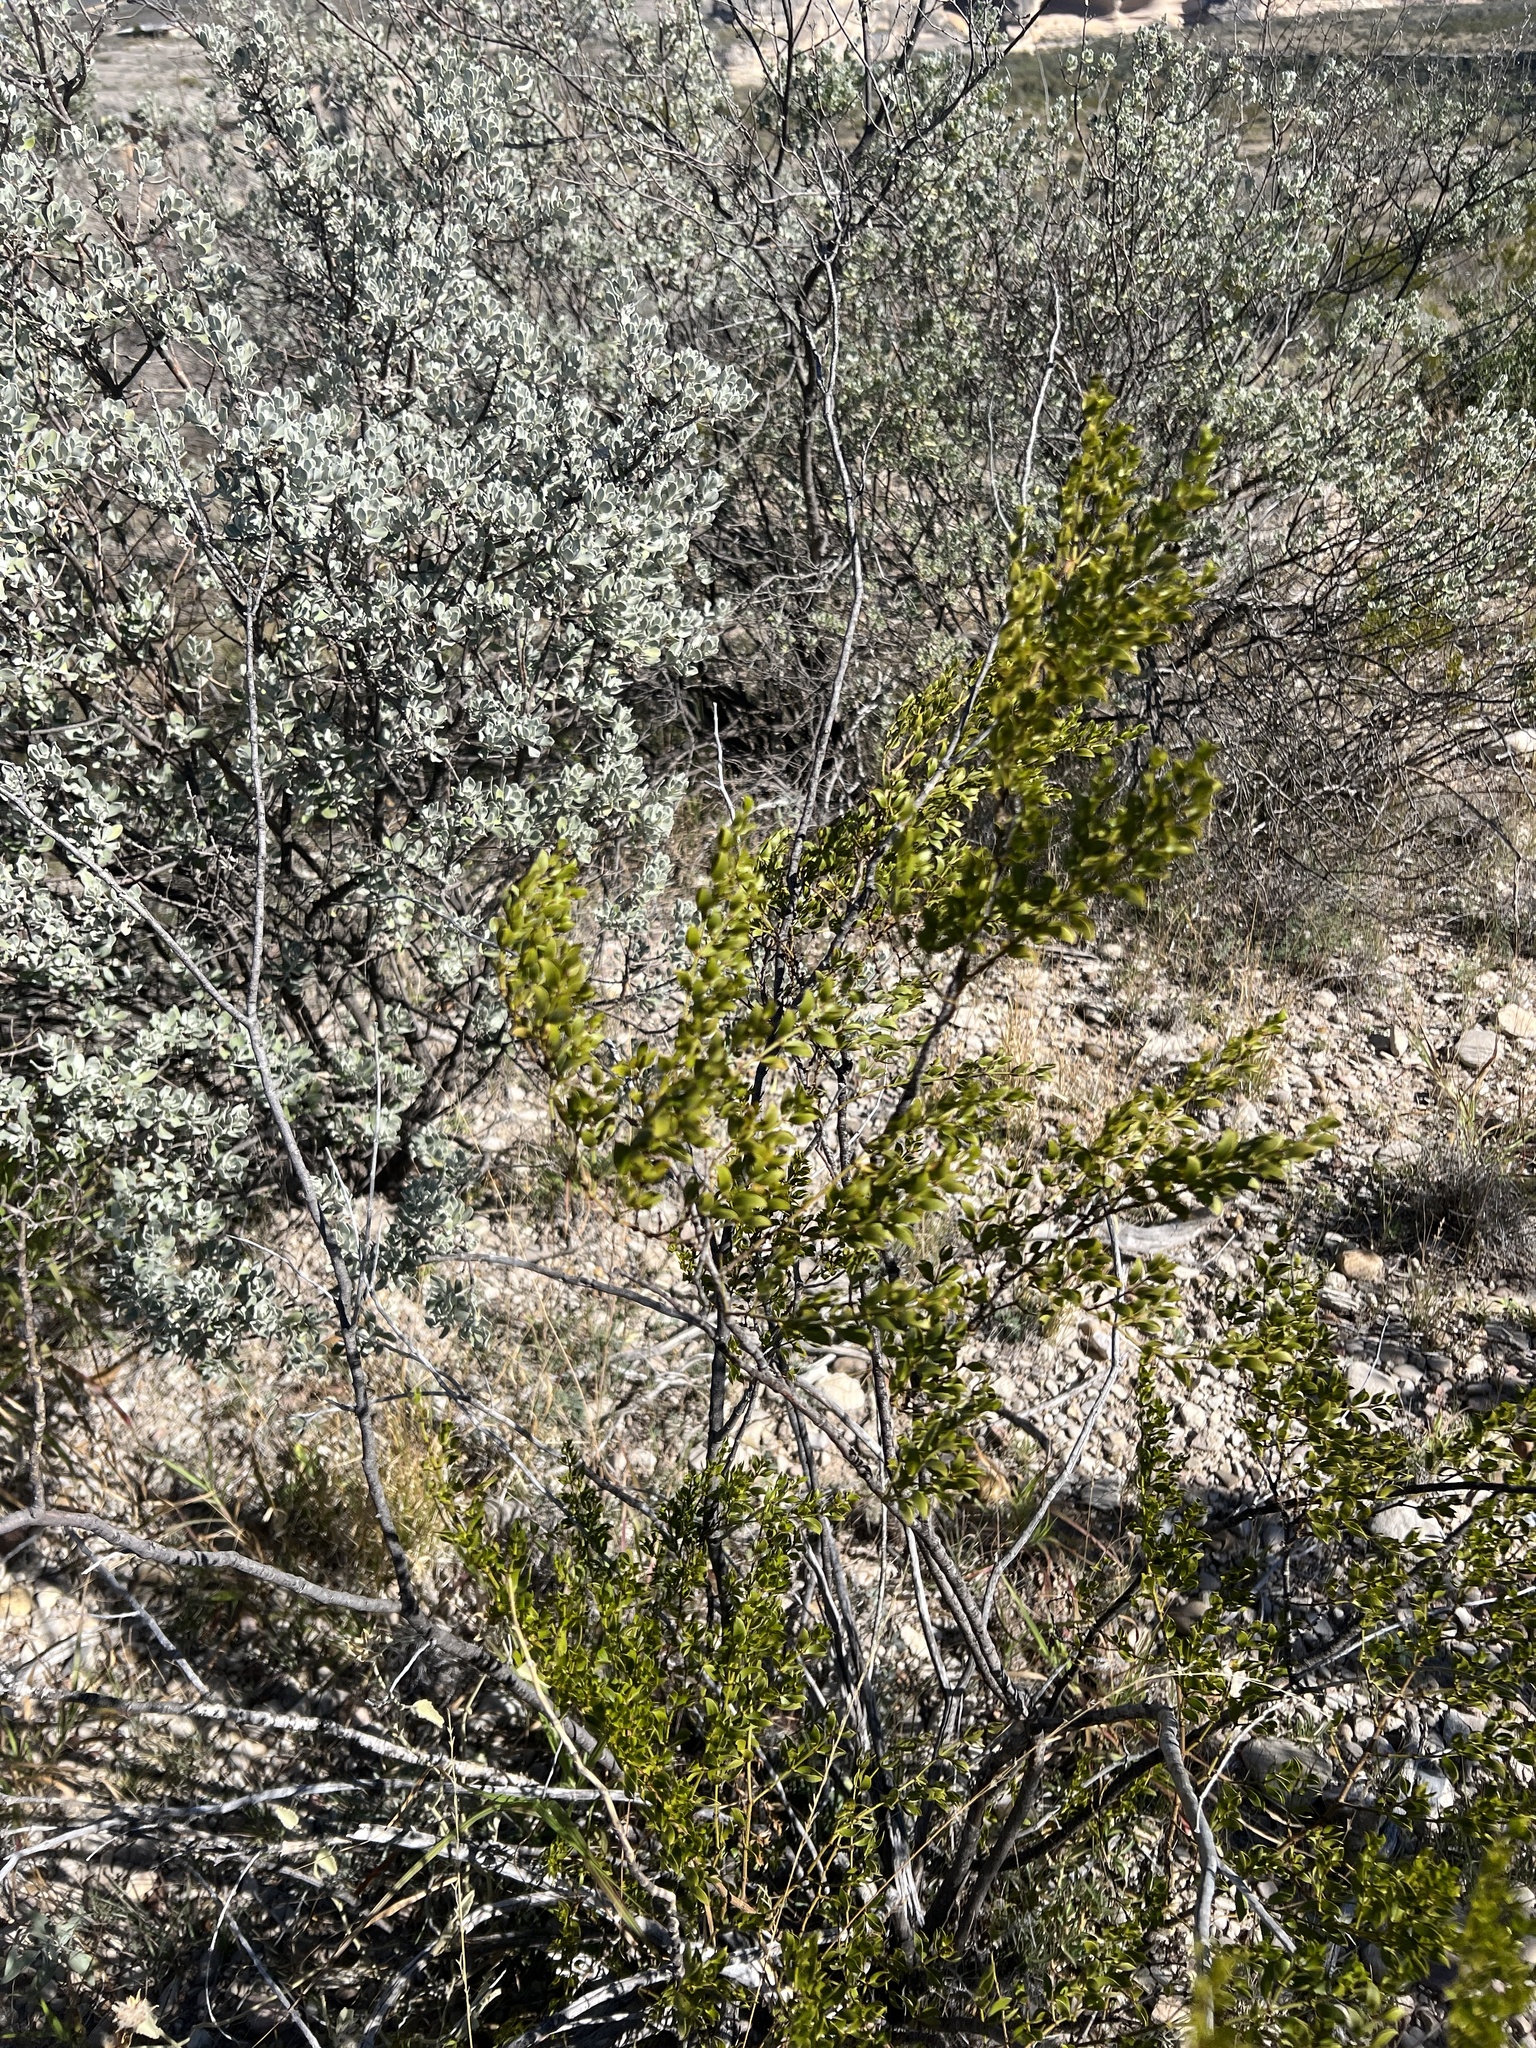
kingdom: Plantae
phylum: Tracheophyta
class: Magnoliopsida
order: Zygophyllales
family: Zygophyllaceae
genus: Larrea
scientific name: Larrea tridentata
